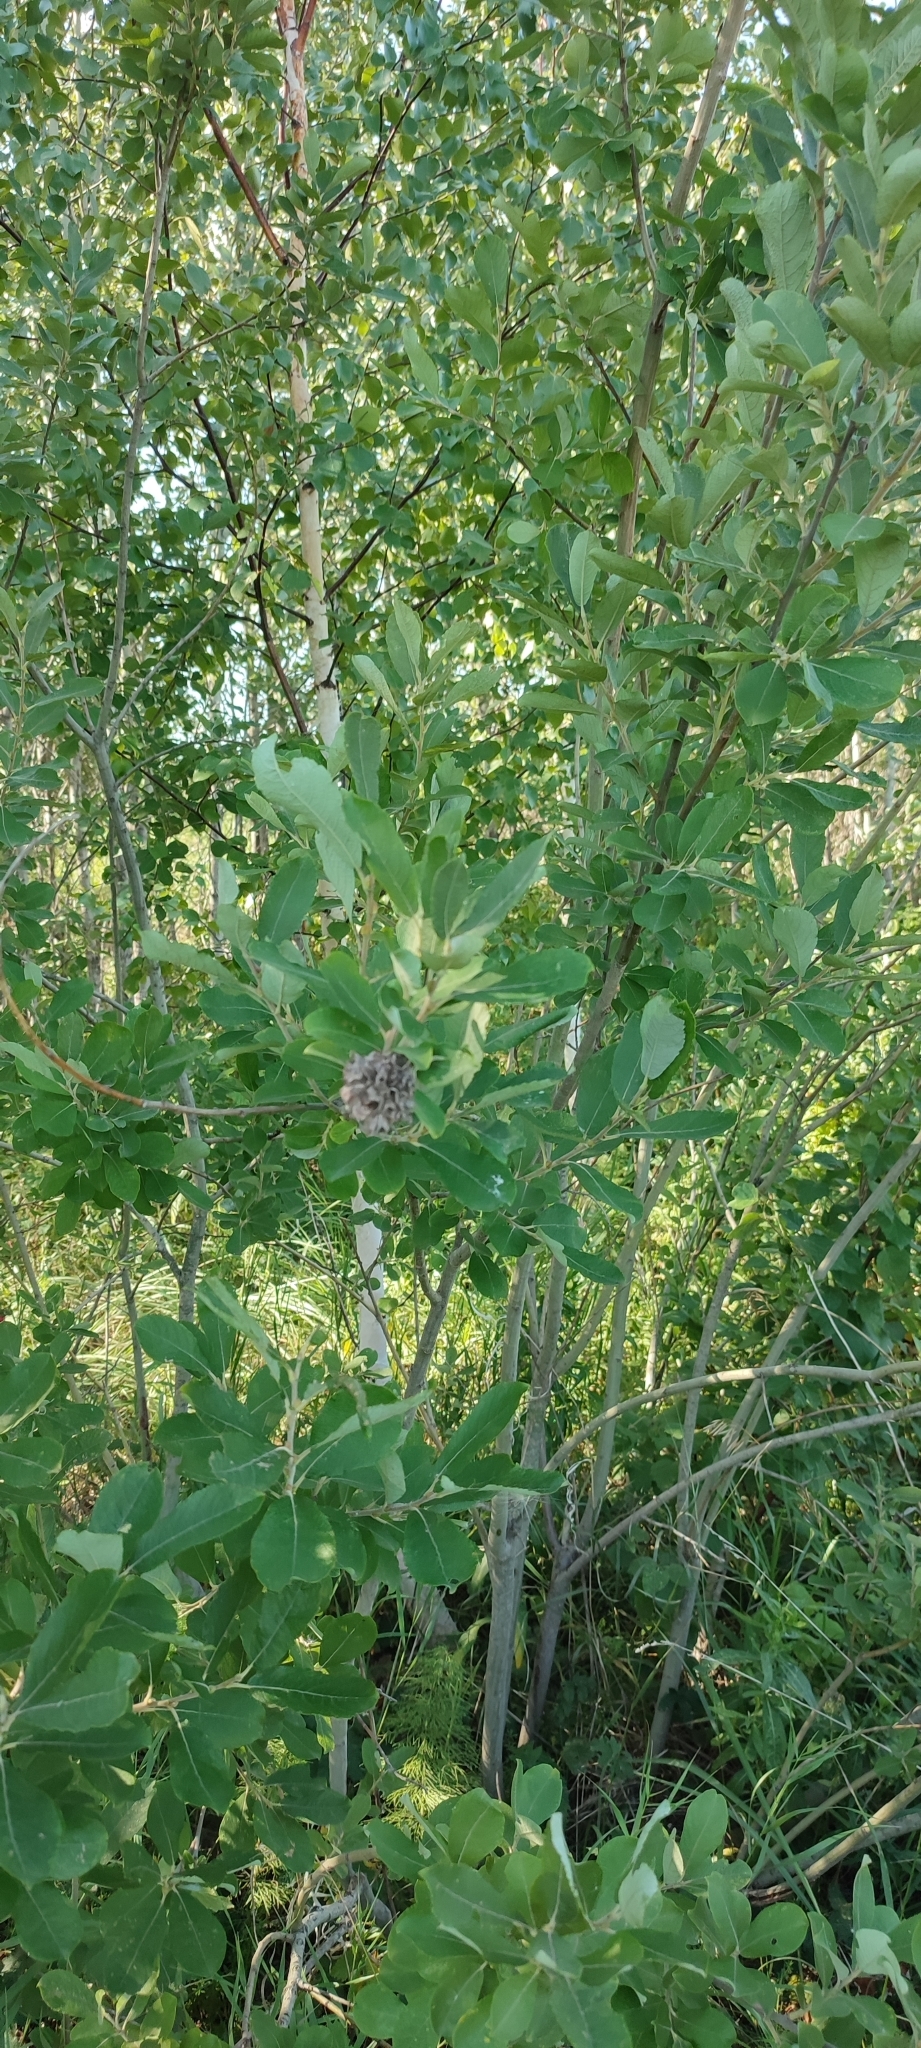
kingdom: Plantae
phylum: Tracheophyta
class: Magnoliopsida
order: Malpighiales
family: Salicaceae
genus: Salix
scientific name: Salix cinerea
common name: Common sallow
